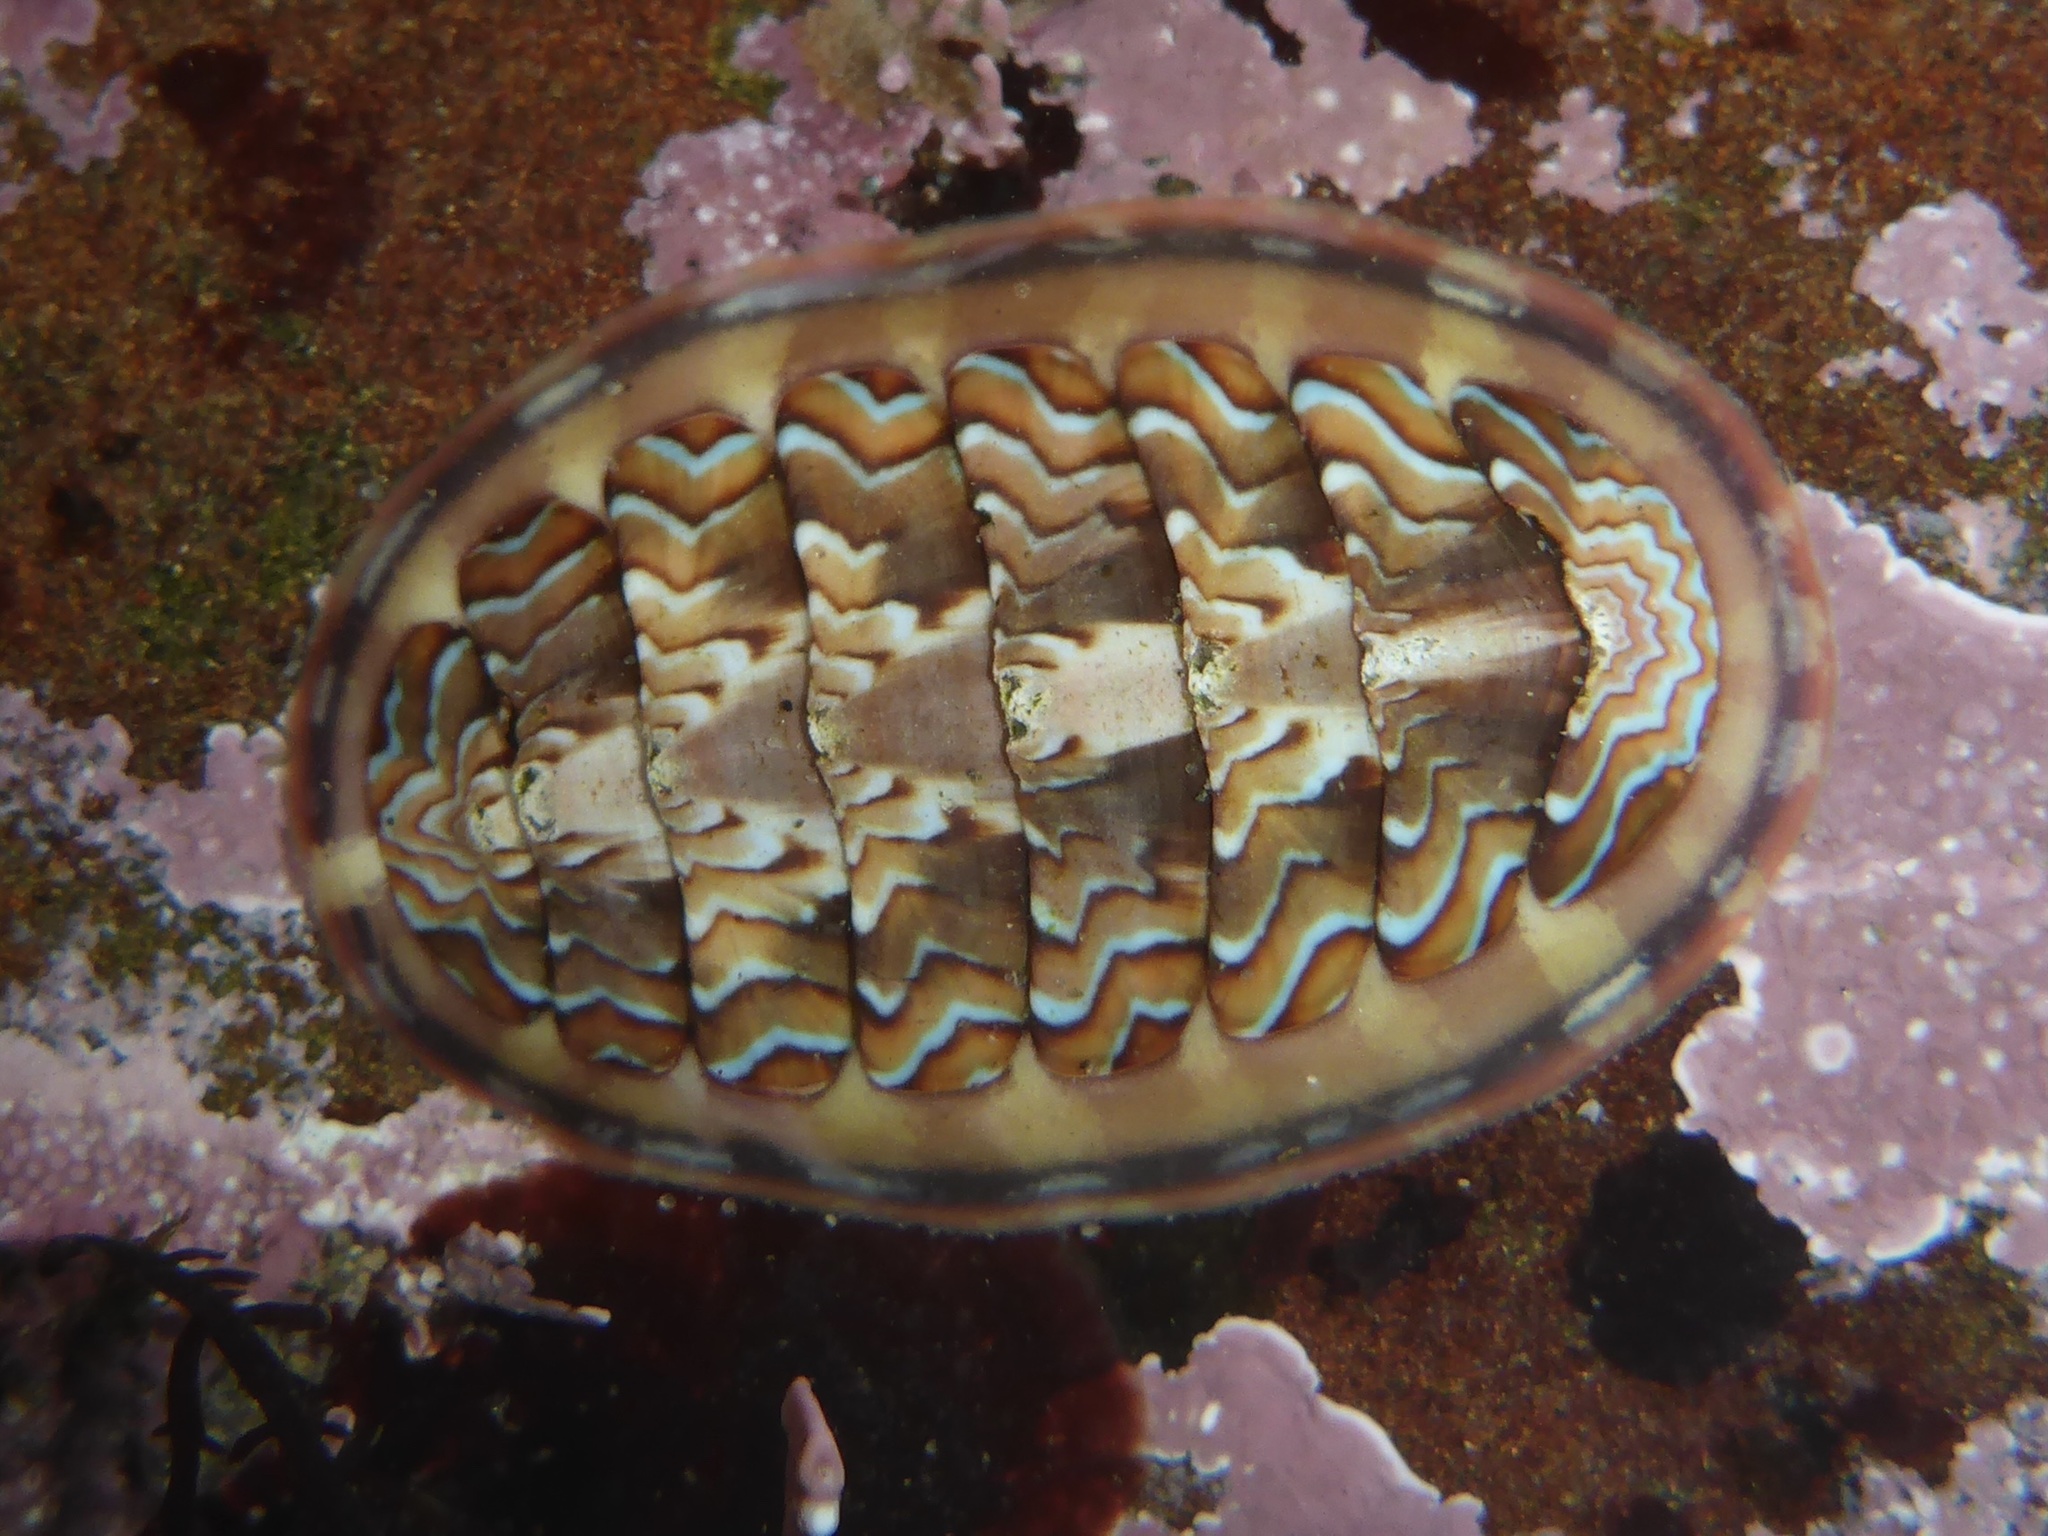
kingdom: Animalia
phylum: Mollusca
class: Polyplacophora
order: Chitonida
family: Tonicellidae
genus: Tonicella
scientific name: Tonicella lokii
